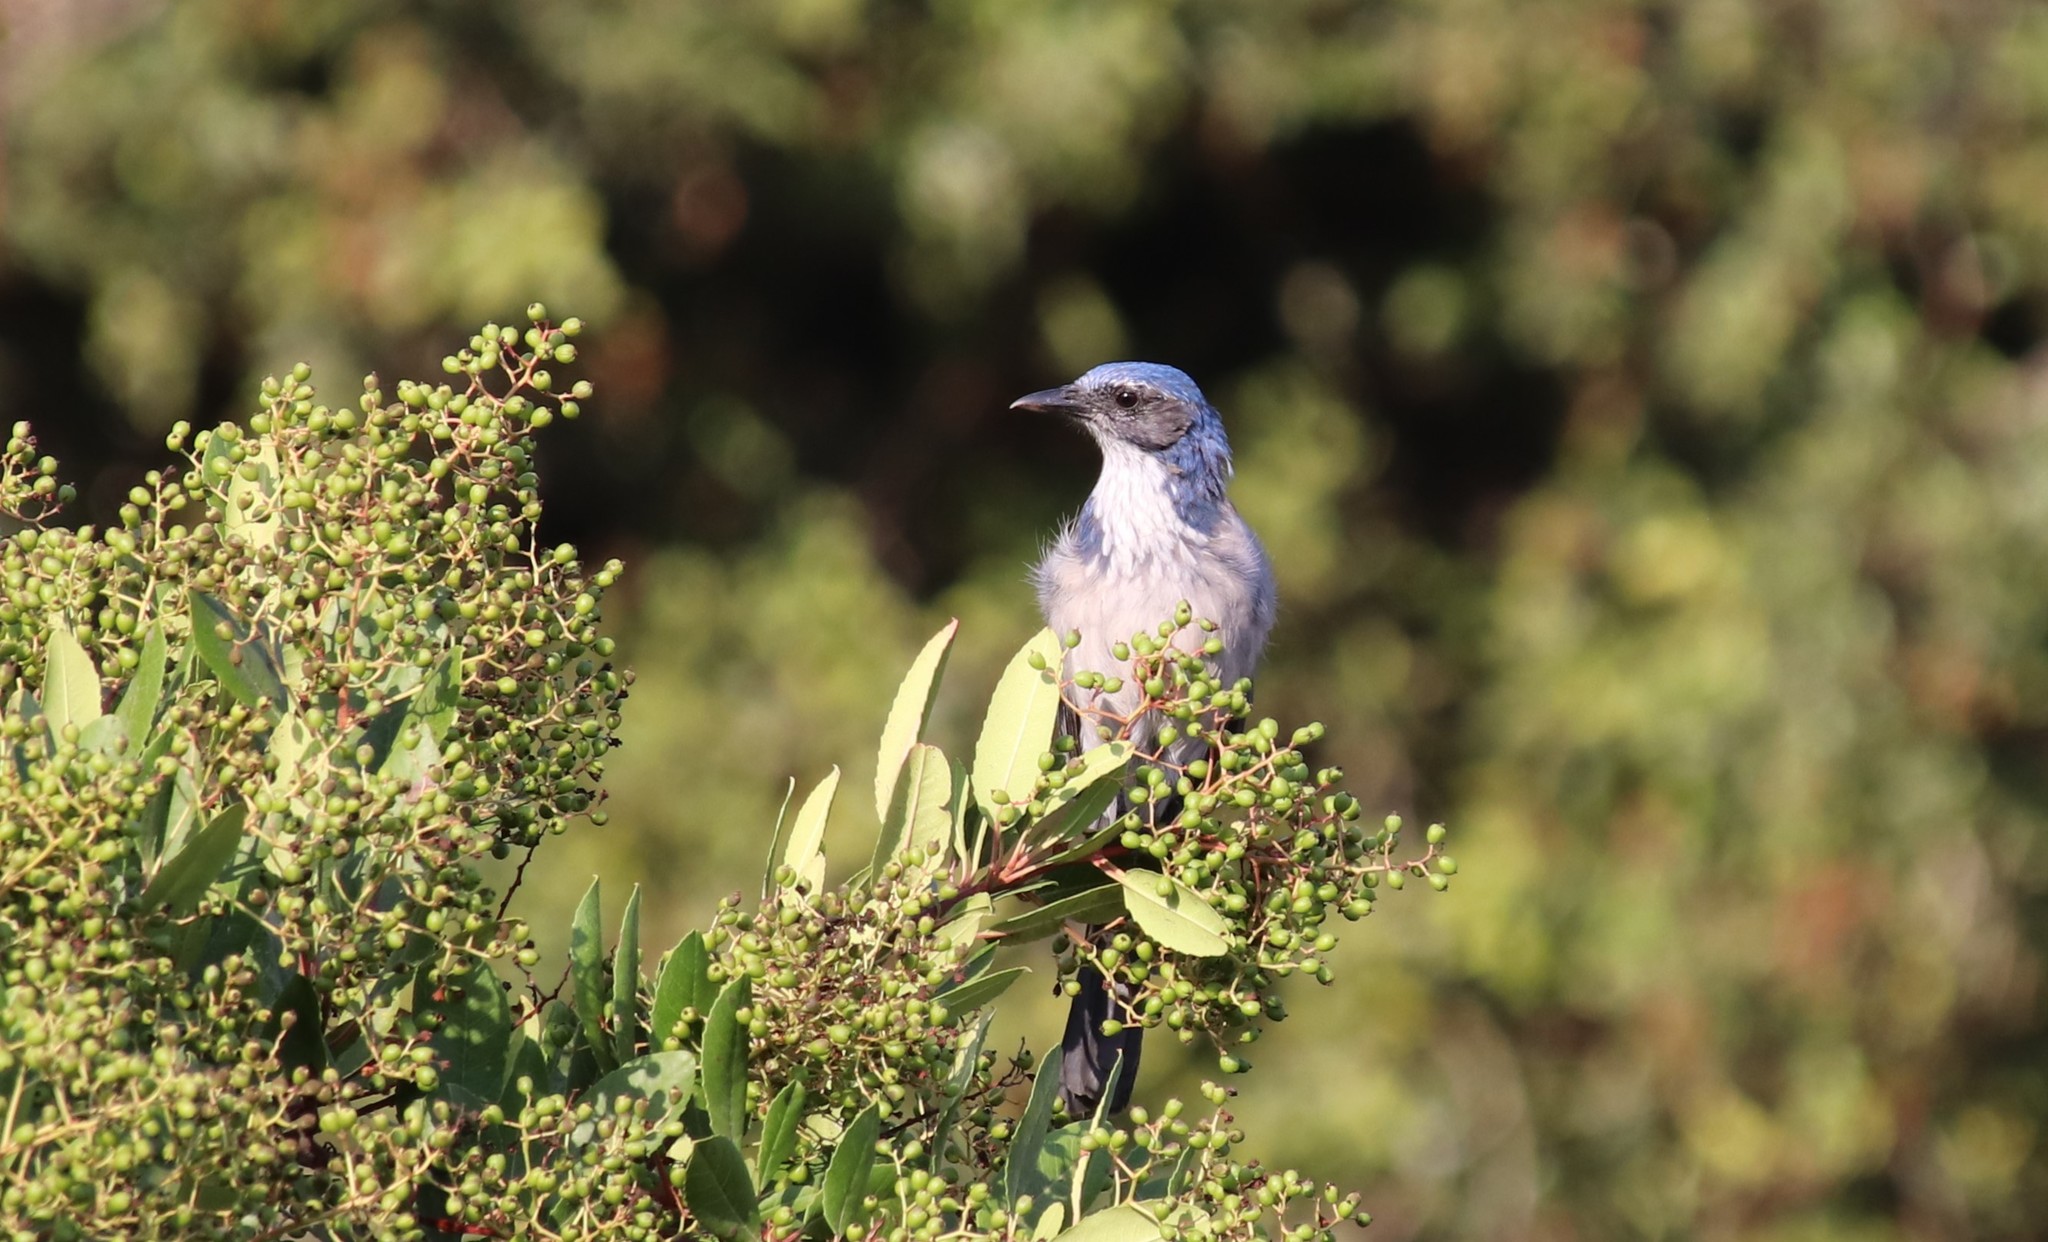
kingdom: Animalia
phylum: Chordata
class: Aves
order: Passeriformes
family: Corvidae
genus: Aphelocoma
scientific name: Aphelocoma californica
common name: California scrub-jay
